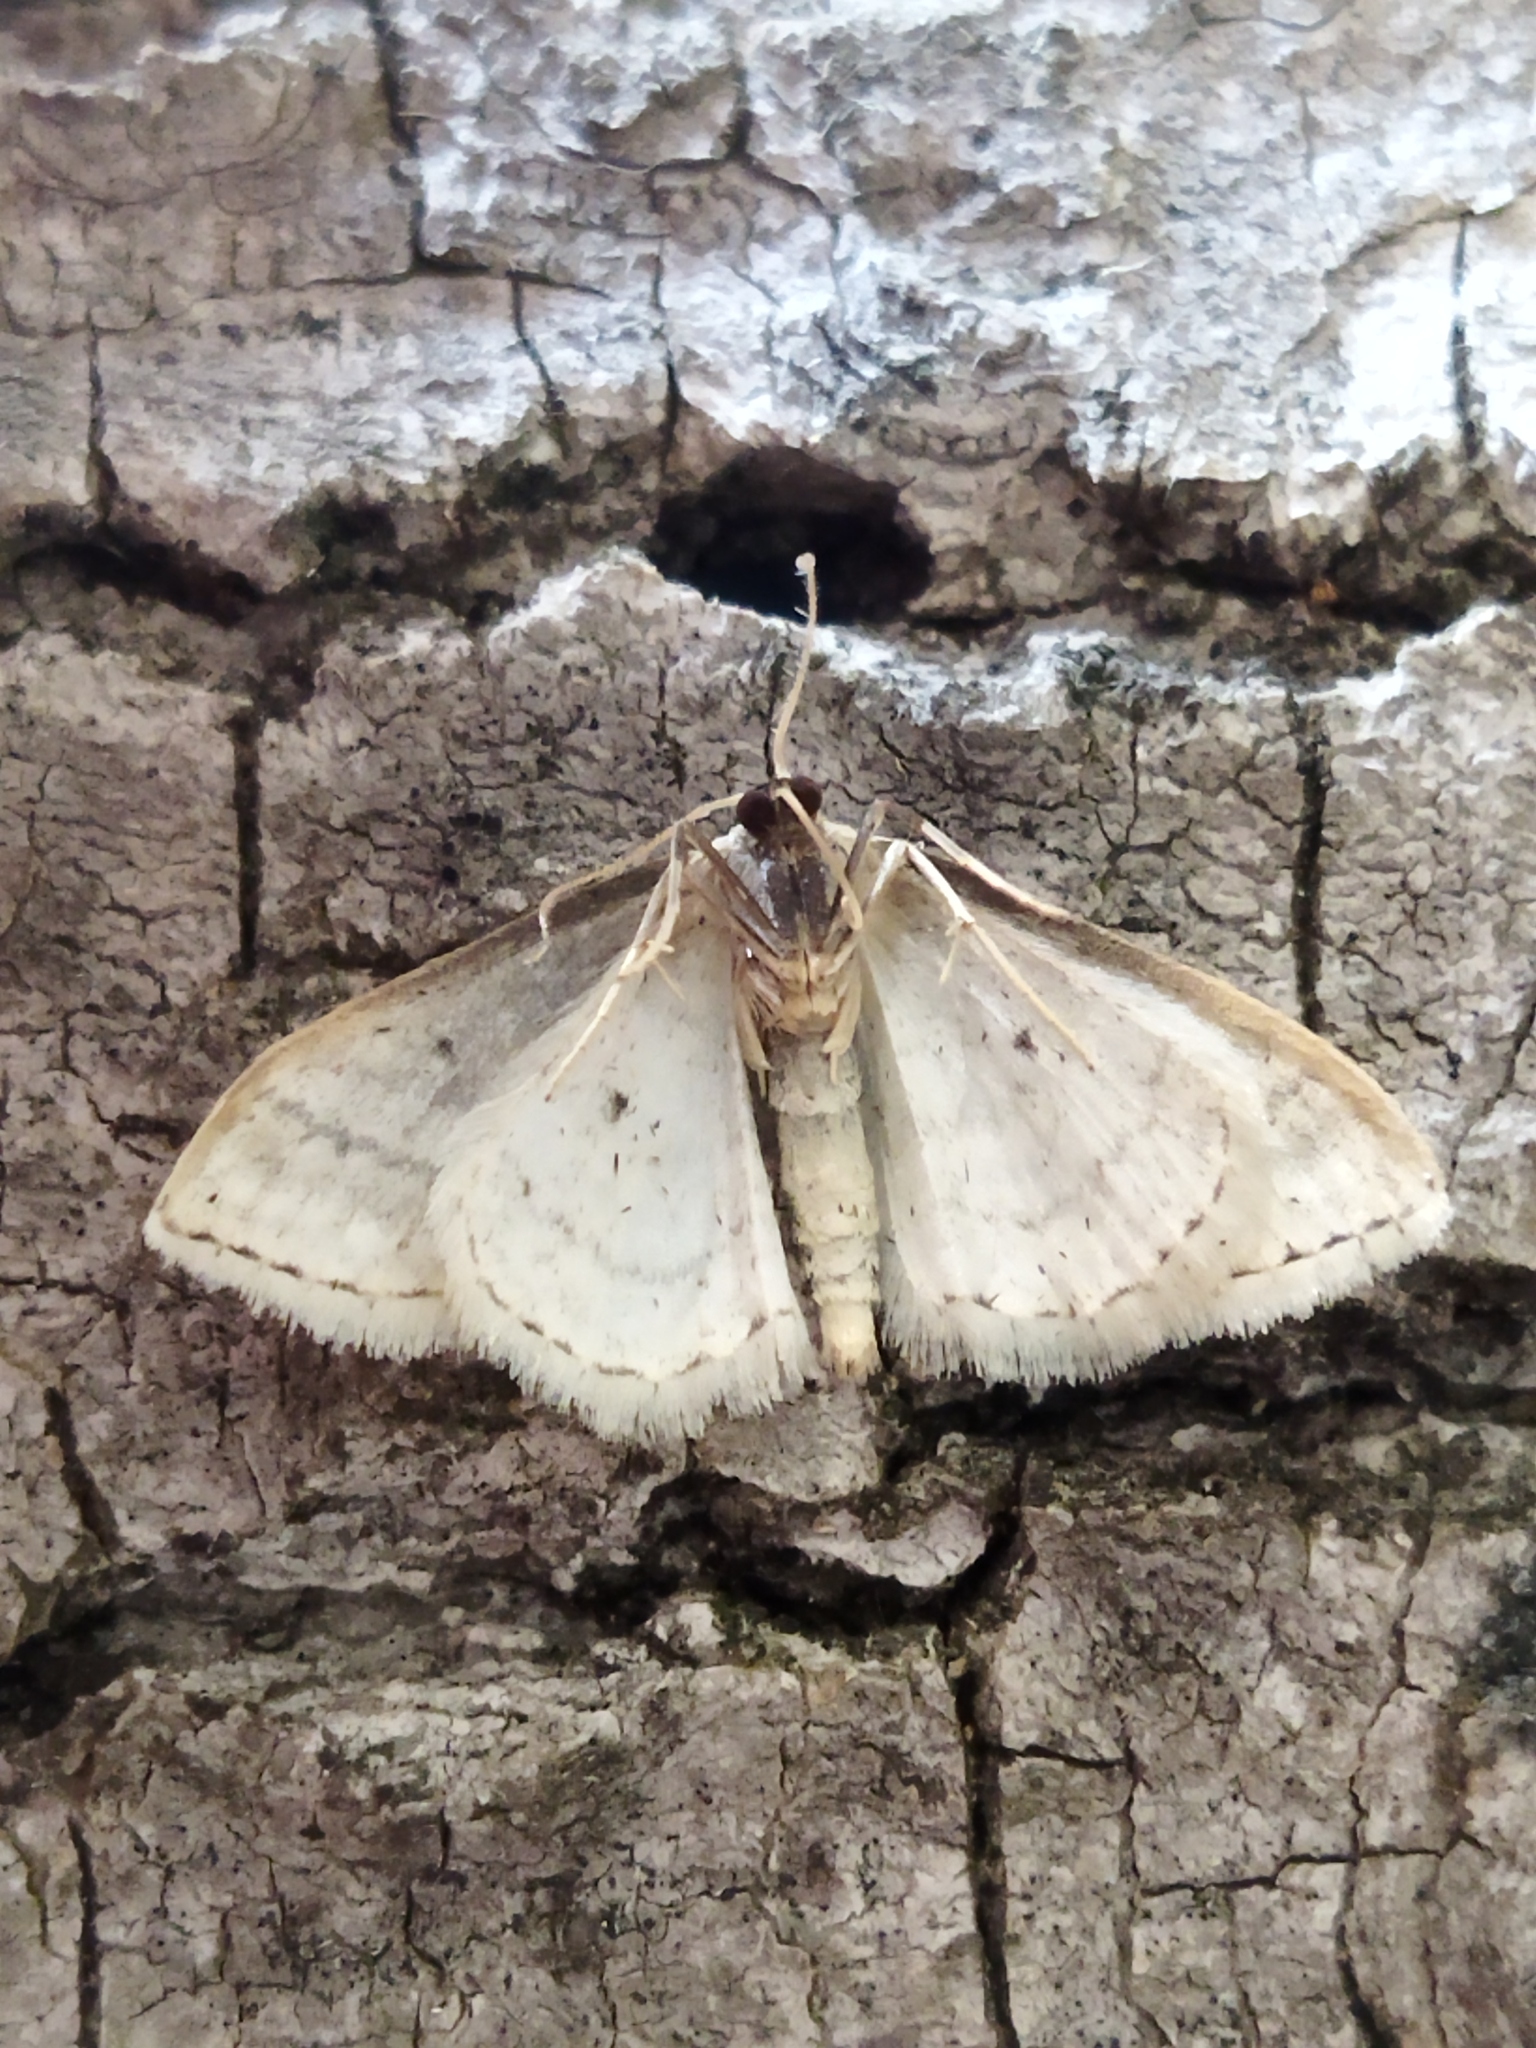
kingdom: Animalia
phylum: Arthropoda
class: Insecta
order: Lepidoptera
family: Geometridae
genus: Idaea
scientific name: Idaea subsericeata
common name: Satin wave
